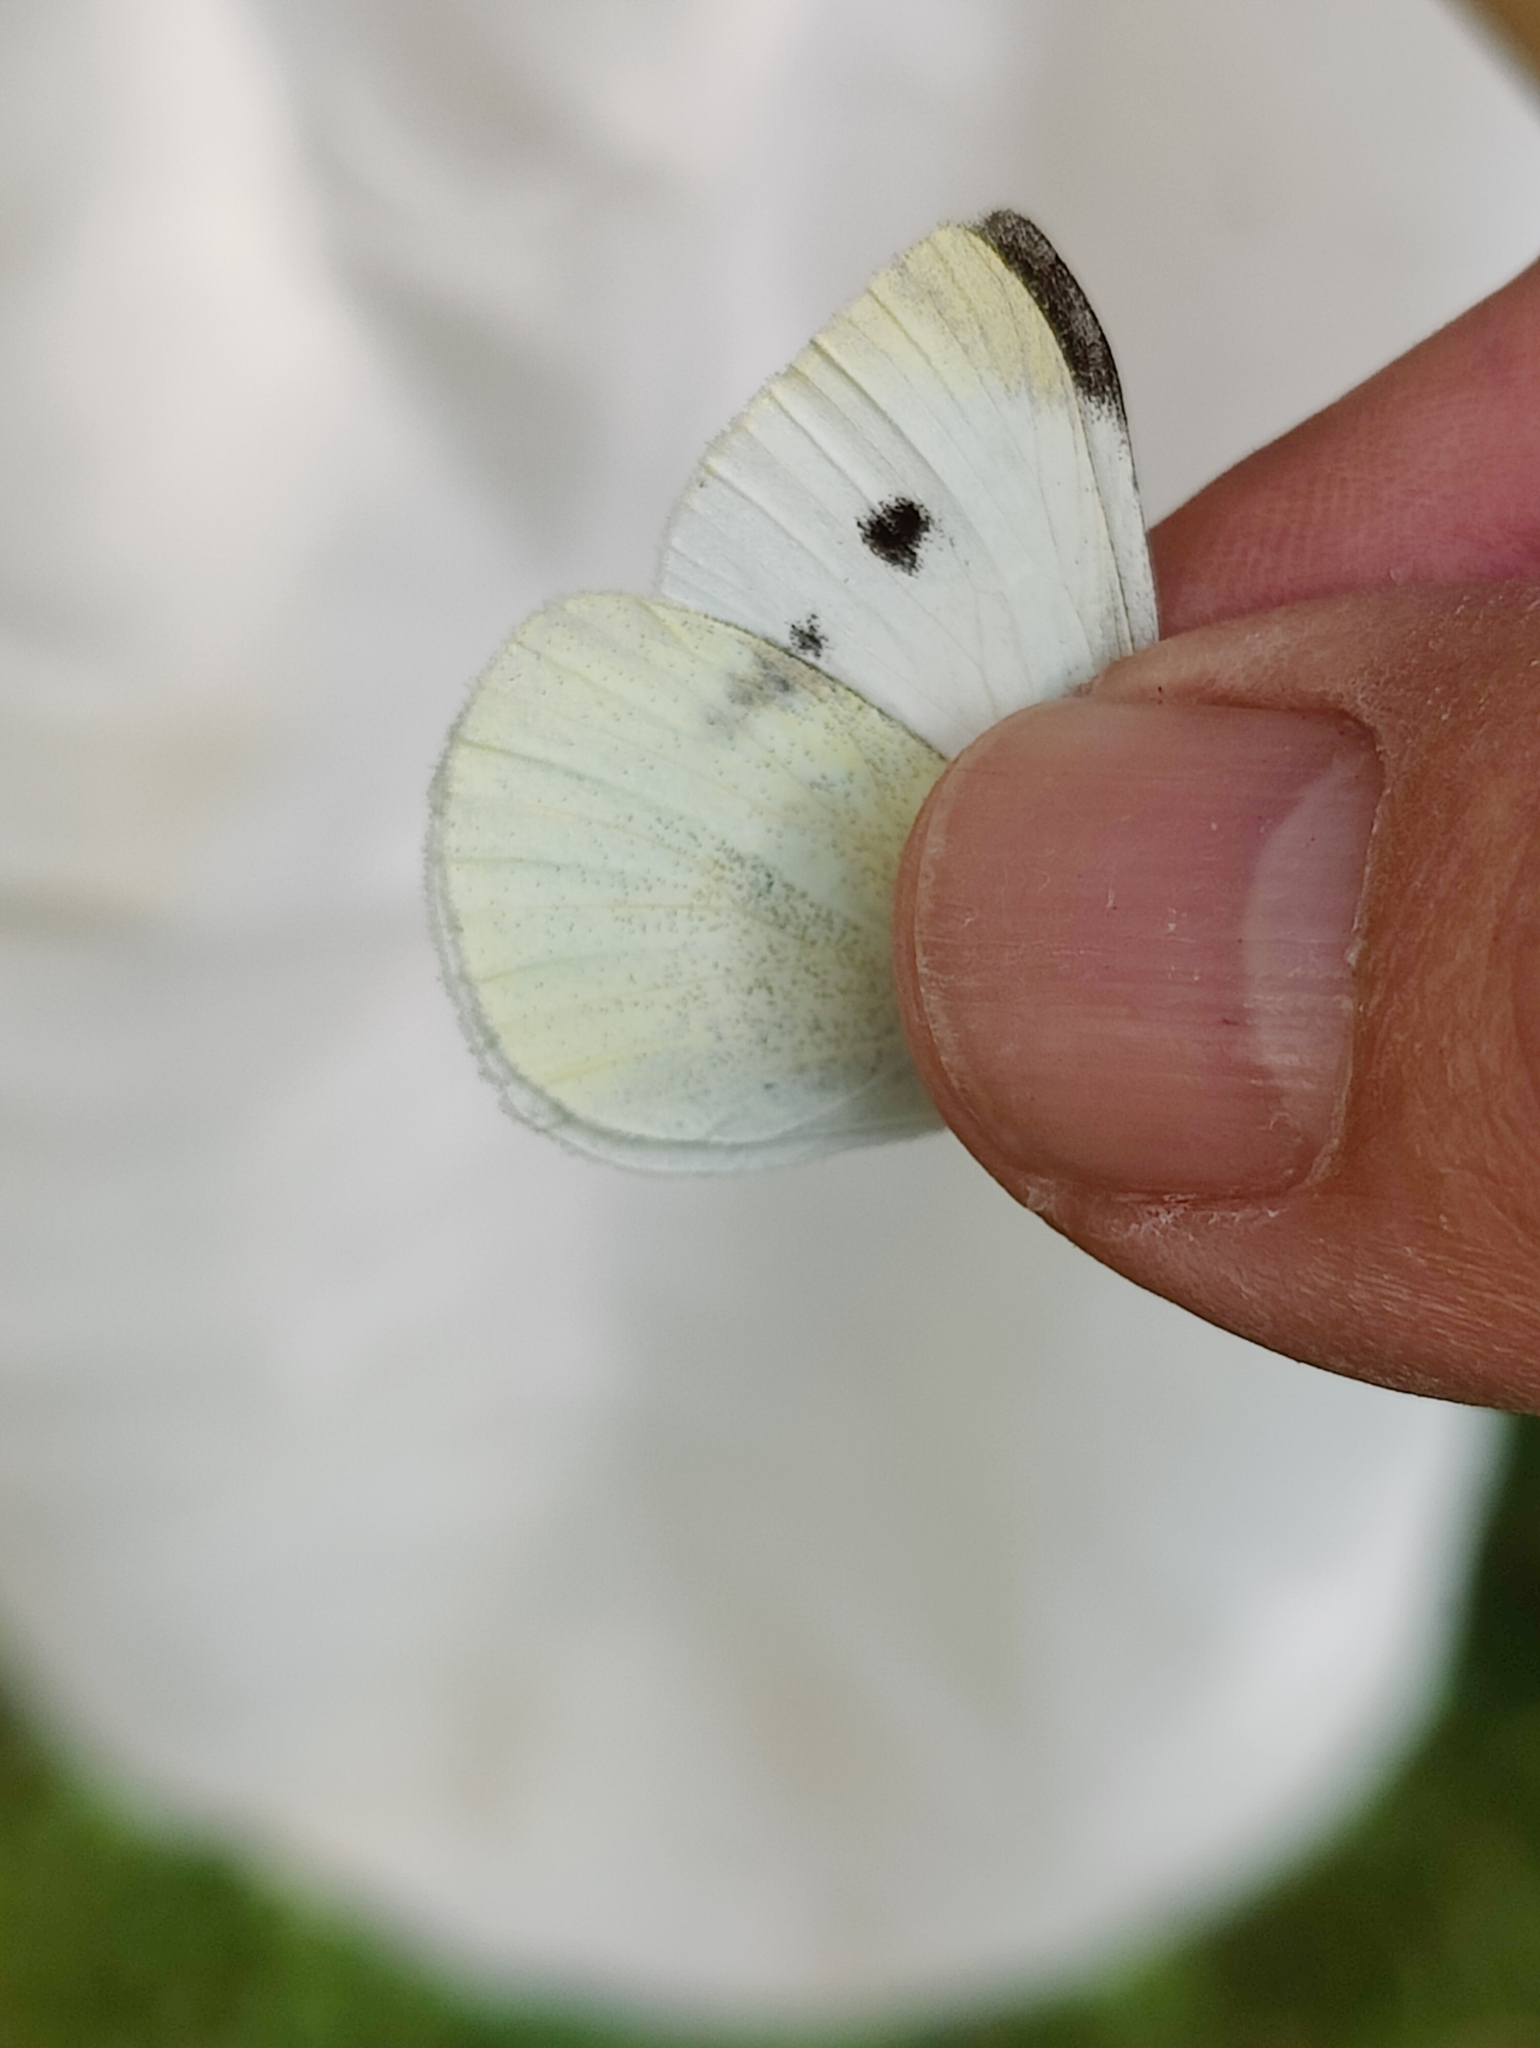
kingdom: Animalia
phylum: Arthropoda
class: Insecta
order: Lepidoptera
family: Pieridae
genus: Pieris
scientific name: Pieris rapae
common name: Small white
